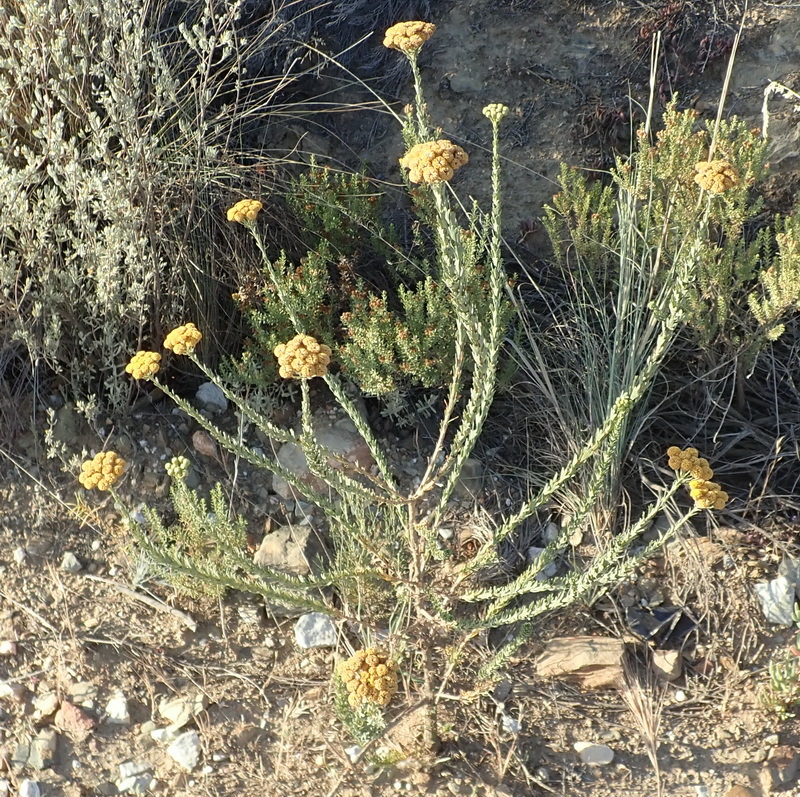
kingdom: Plantae
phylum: Tracheophyta
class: Magnoliopsida
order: Asterales
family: Asteraceae
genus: Athanasia
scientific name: Athanasia trifurcata
